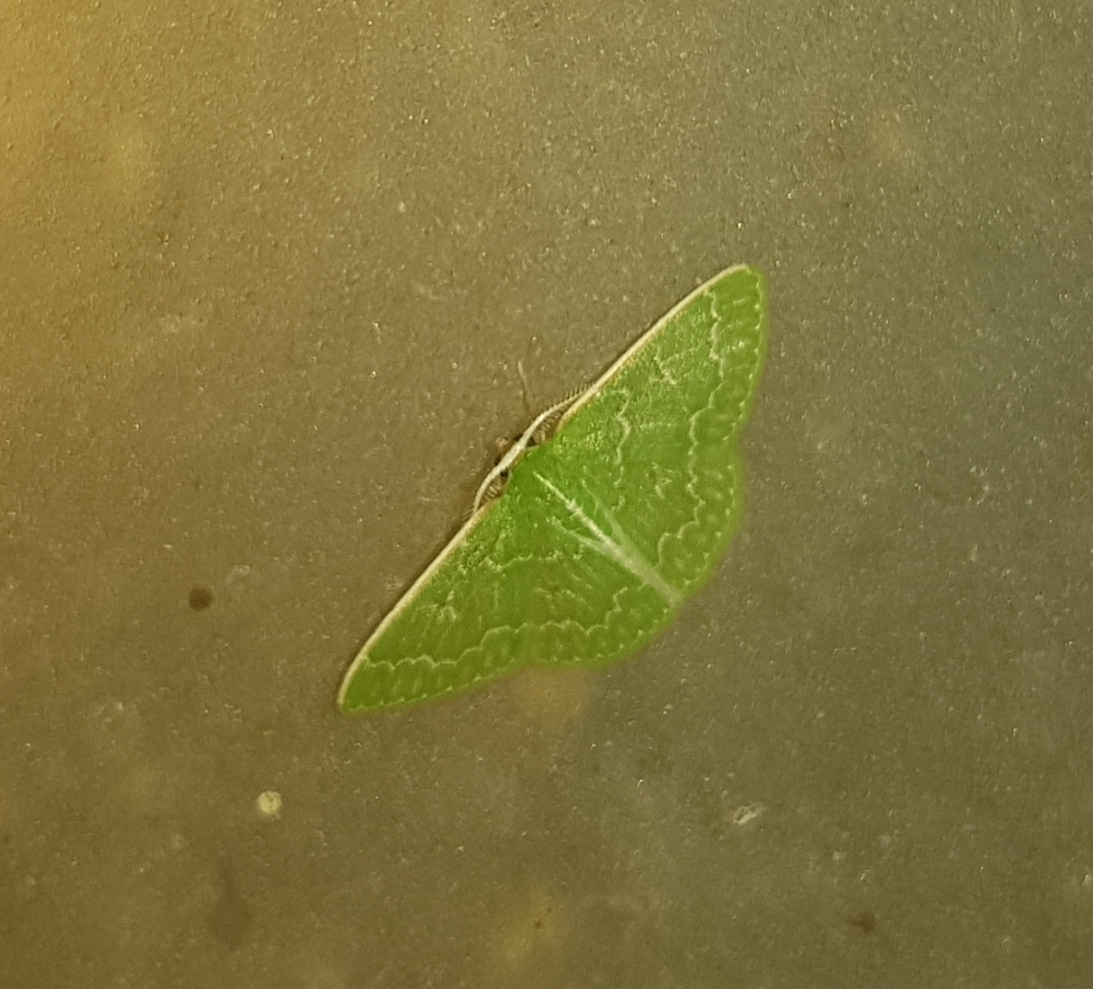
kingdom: Animalia
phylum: Arthropoda
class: Insecta
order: Lepidoptera
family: Geometridae
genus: Synchlora
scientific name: Synchlora frondaria
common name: Southern emerald
